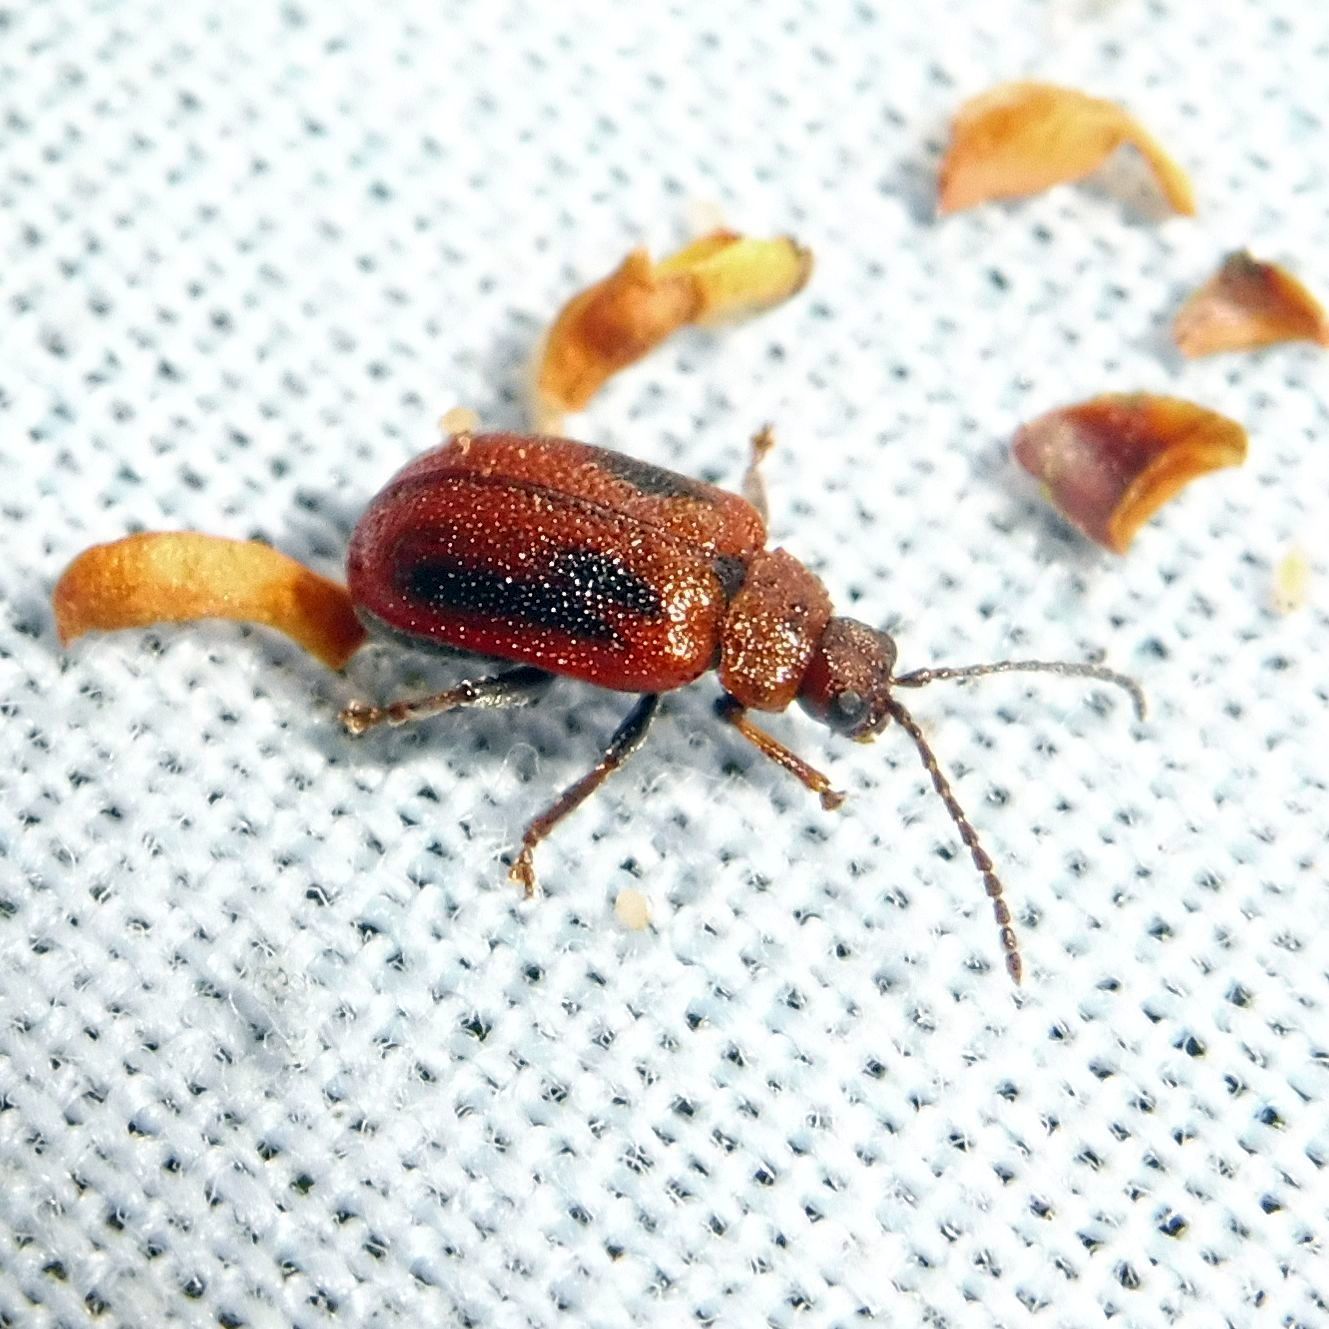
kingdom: Animalia
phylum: Arthropoda
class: Insecta
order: Coleoptera
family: Chrysomelidae
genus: Lochmaea
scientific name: Lochmaea crataegi
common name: Hawthorn leaf beetle
